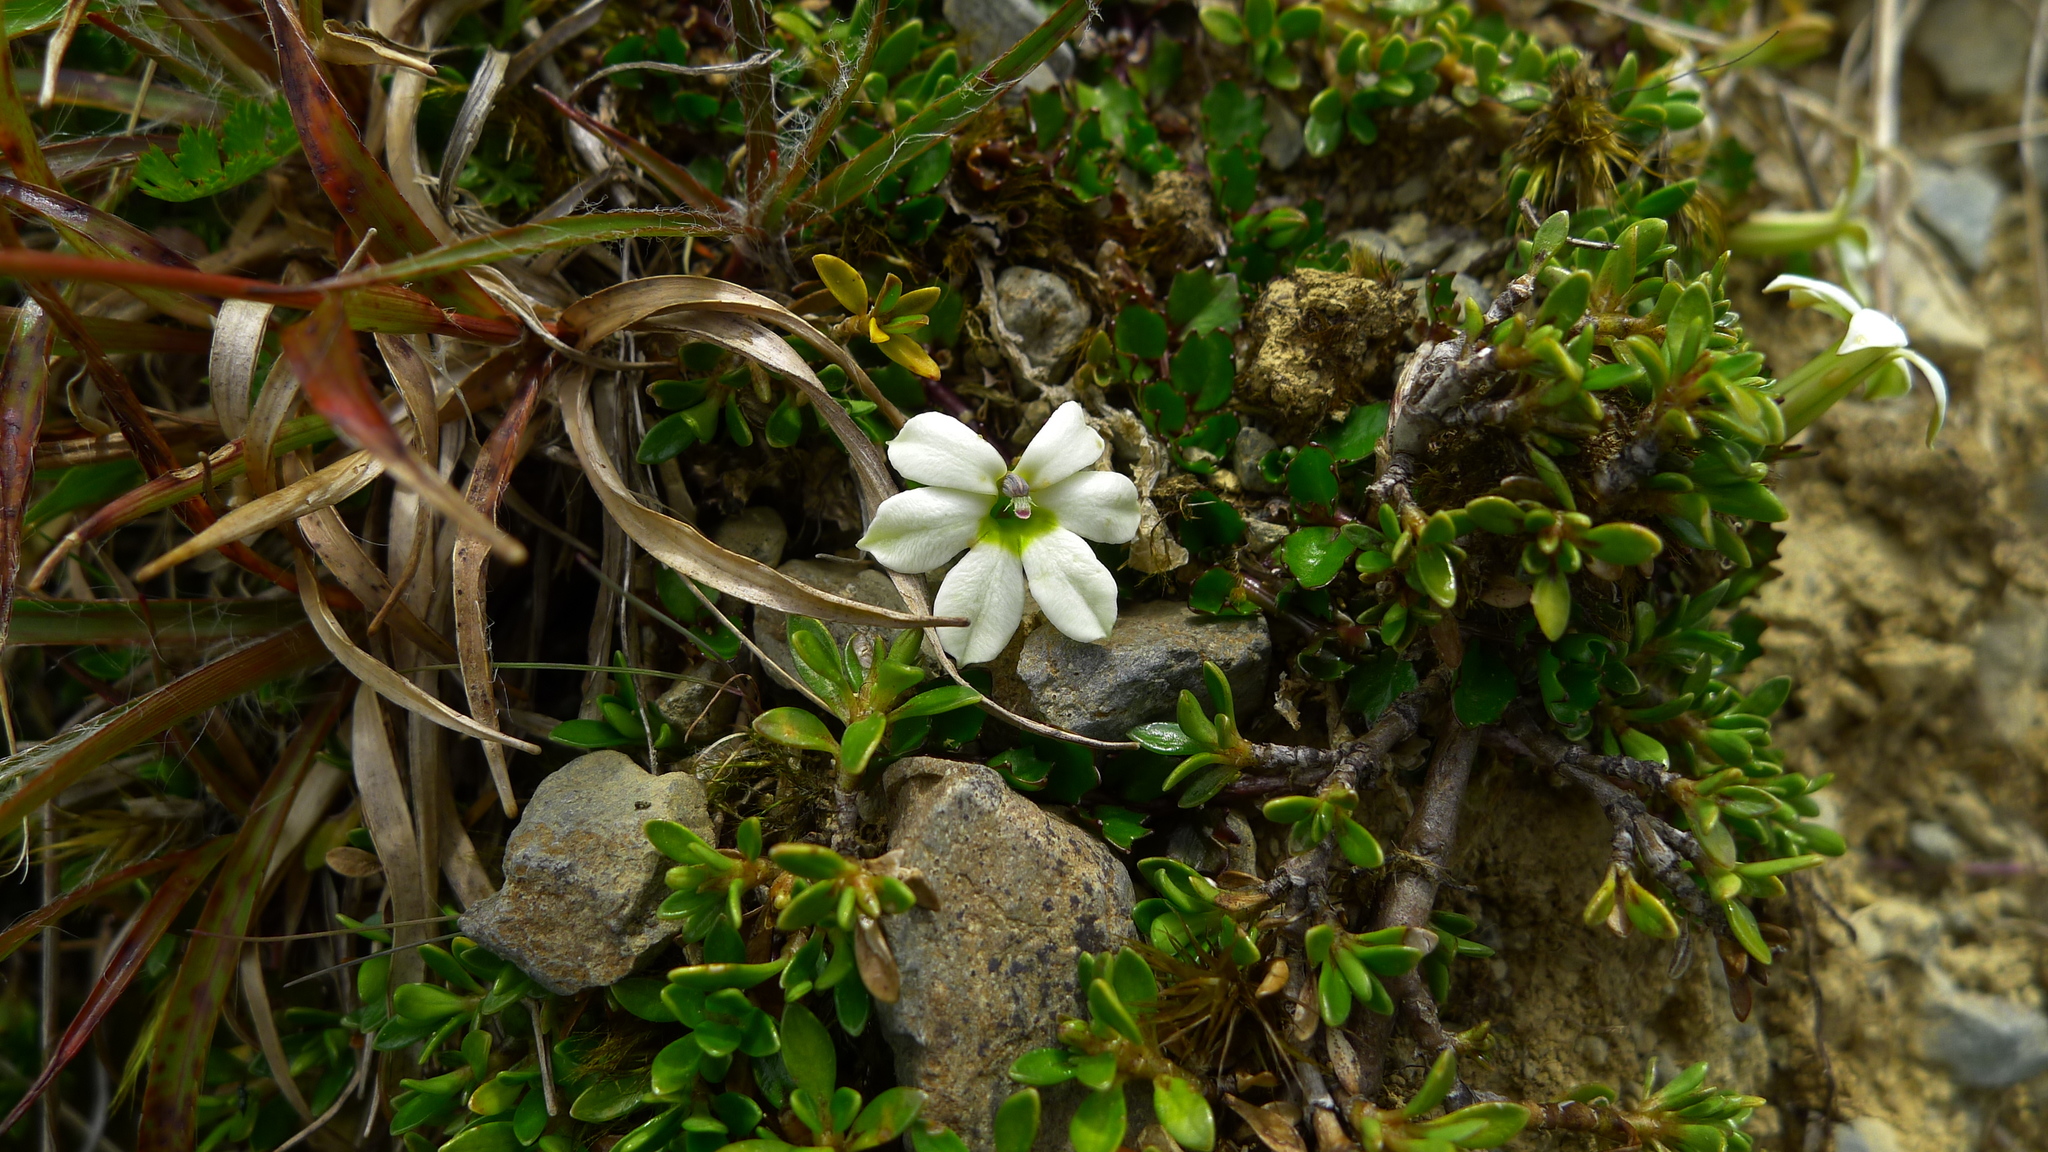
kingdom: Plantae
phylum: Tracheophyta
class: Magnoliopsida
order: Asterales
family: Campanulaceae
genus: Lobelia
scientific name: Lobelia macrodon
